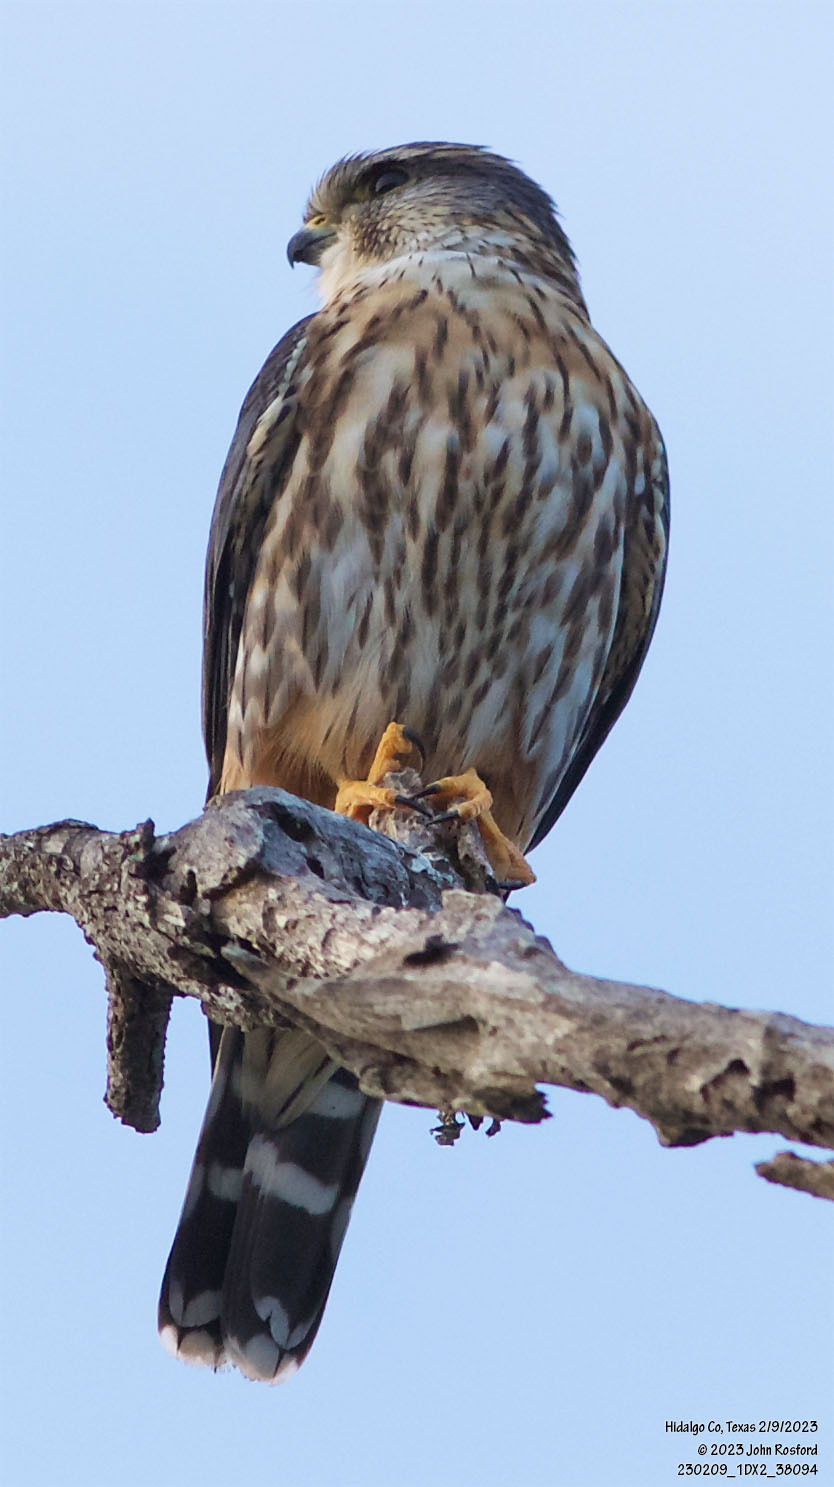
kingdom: Animalia
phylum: Chordata
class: Aves
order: Falconiformes
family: Falconidae
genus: Falco
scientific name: Falco columbarius
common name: Merlin
